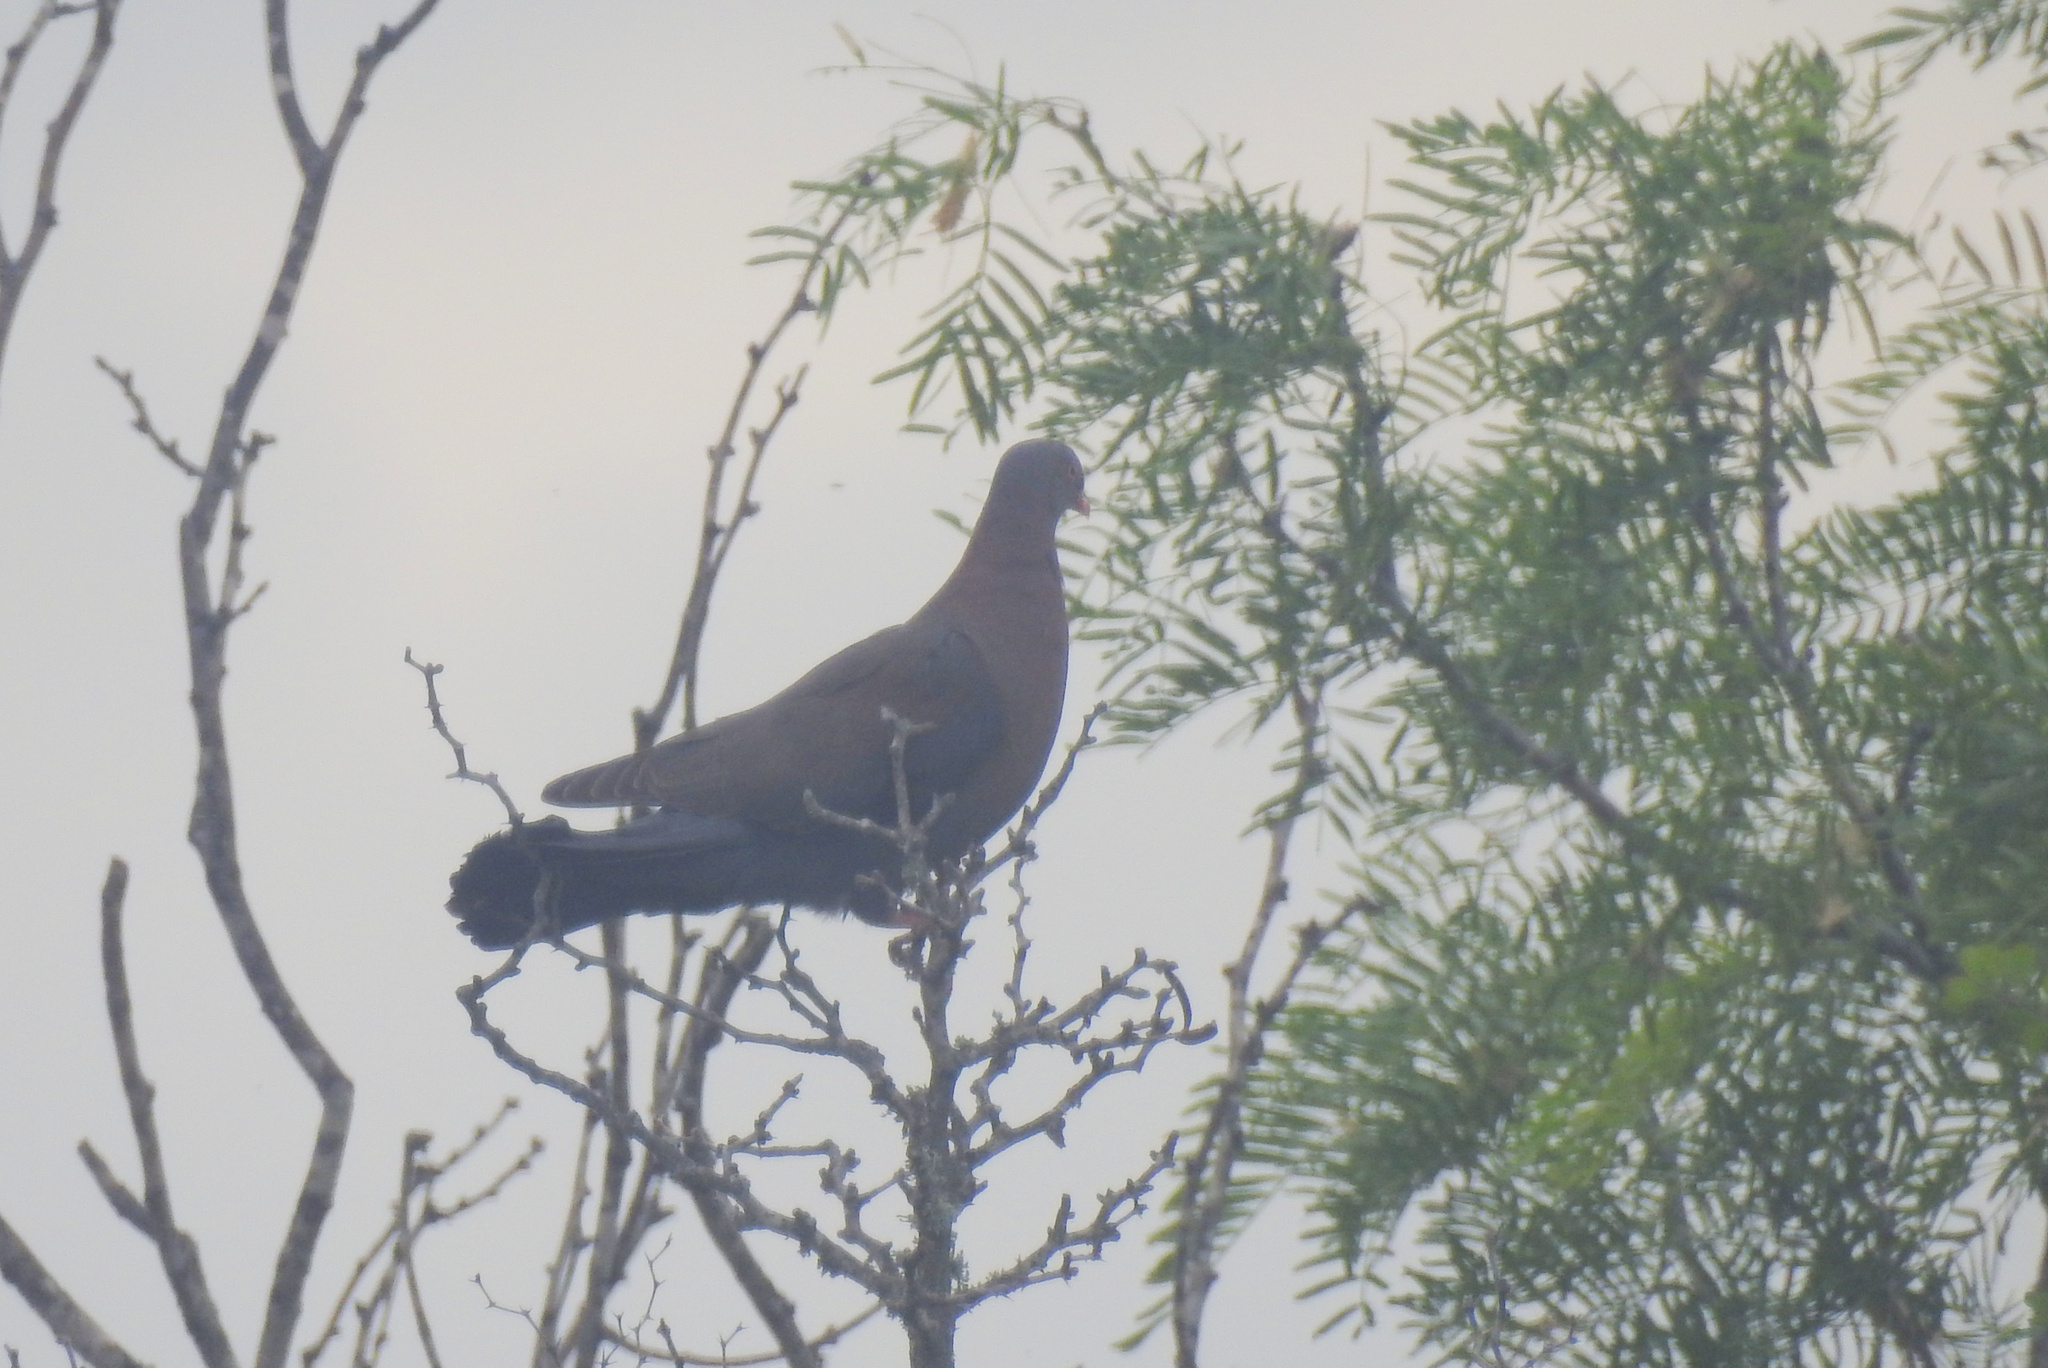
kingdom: Animalia
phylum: Chordata
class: Aves
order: Columbiformes
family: Columbidae
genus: Patagioenas
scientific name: Patagioenas flavirostris
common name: Red-billed pigeon
